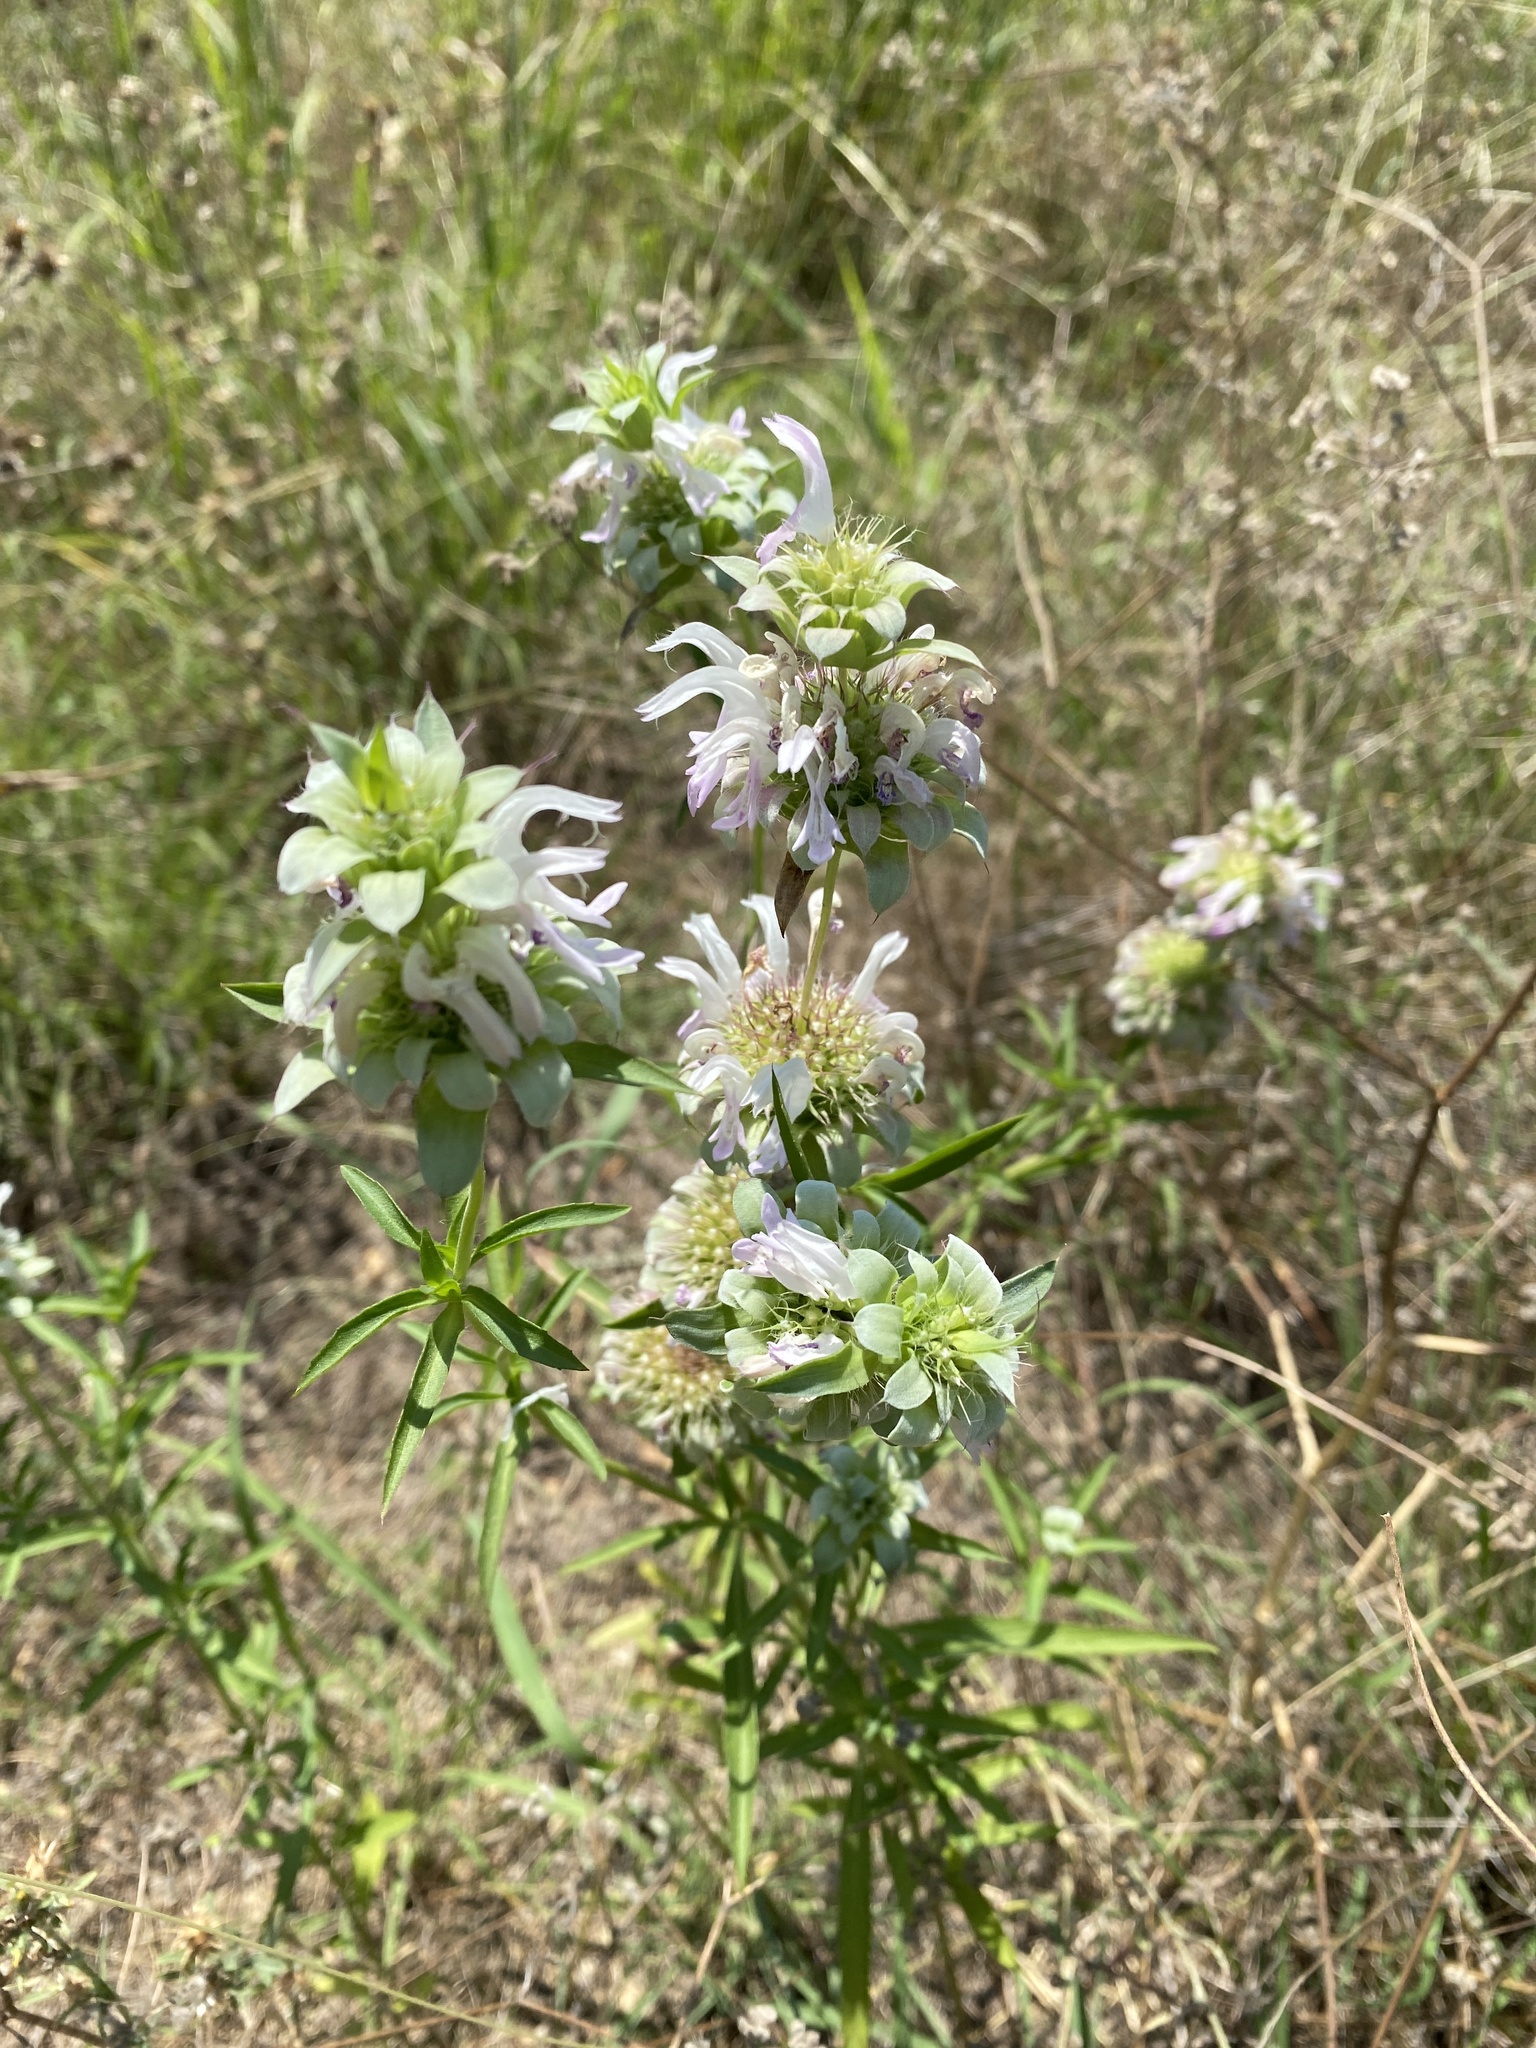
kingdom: Plantae
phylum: Tracheophyta
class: Magnoliopsida
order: Lamiales
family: Lamiaceae
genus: Monarda
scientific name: Monarda citriodora
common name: Lemon beebalm
